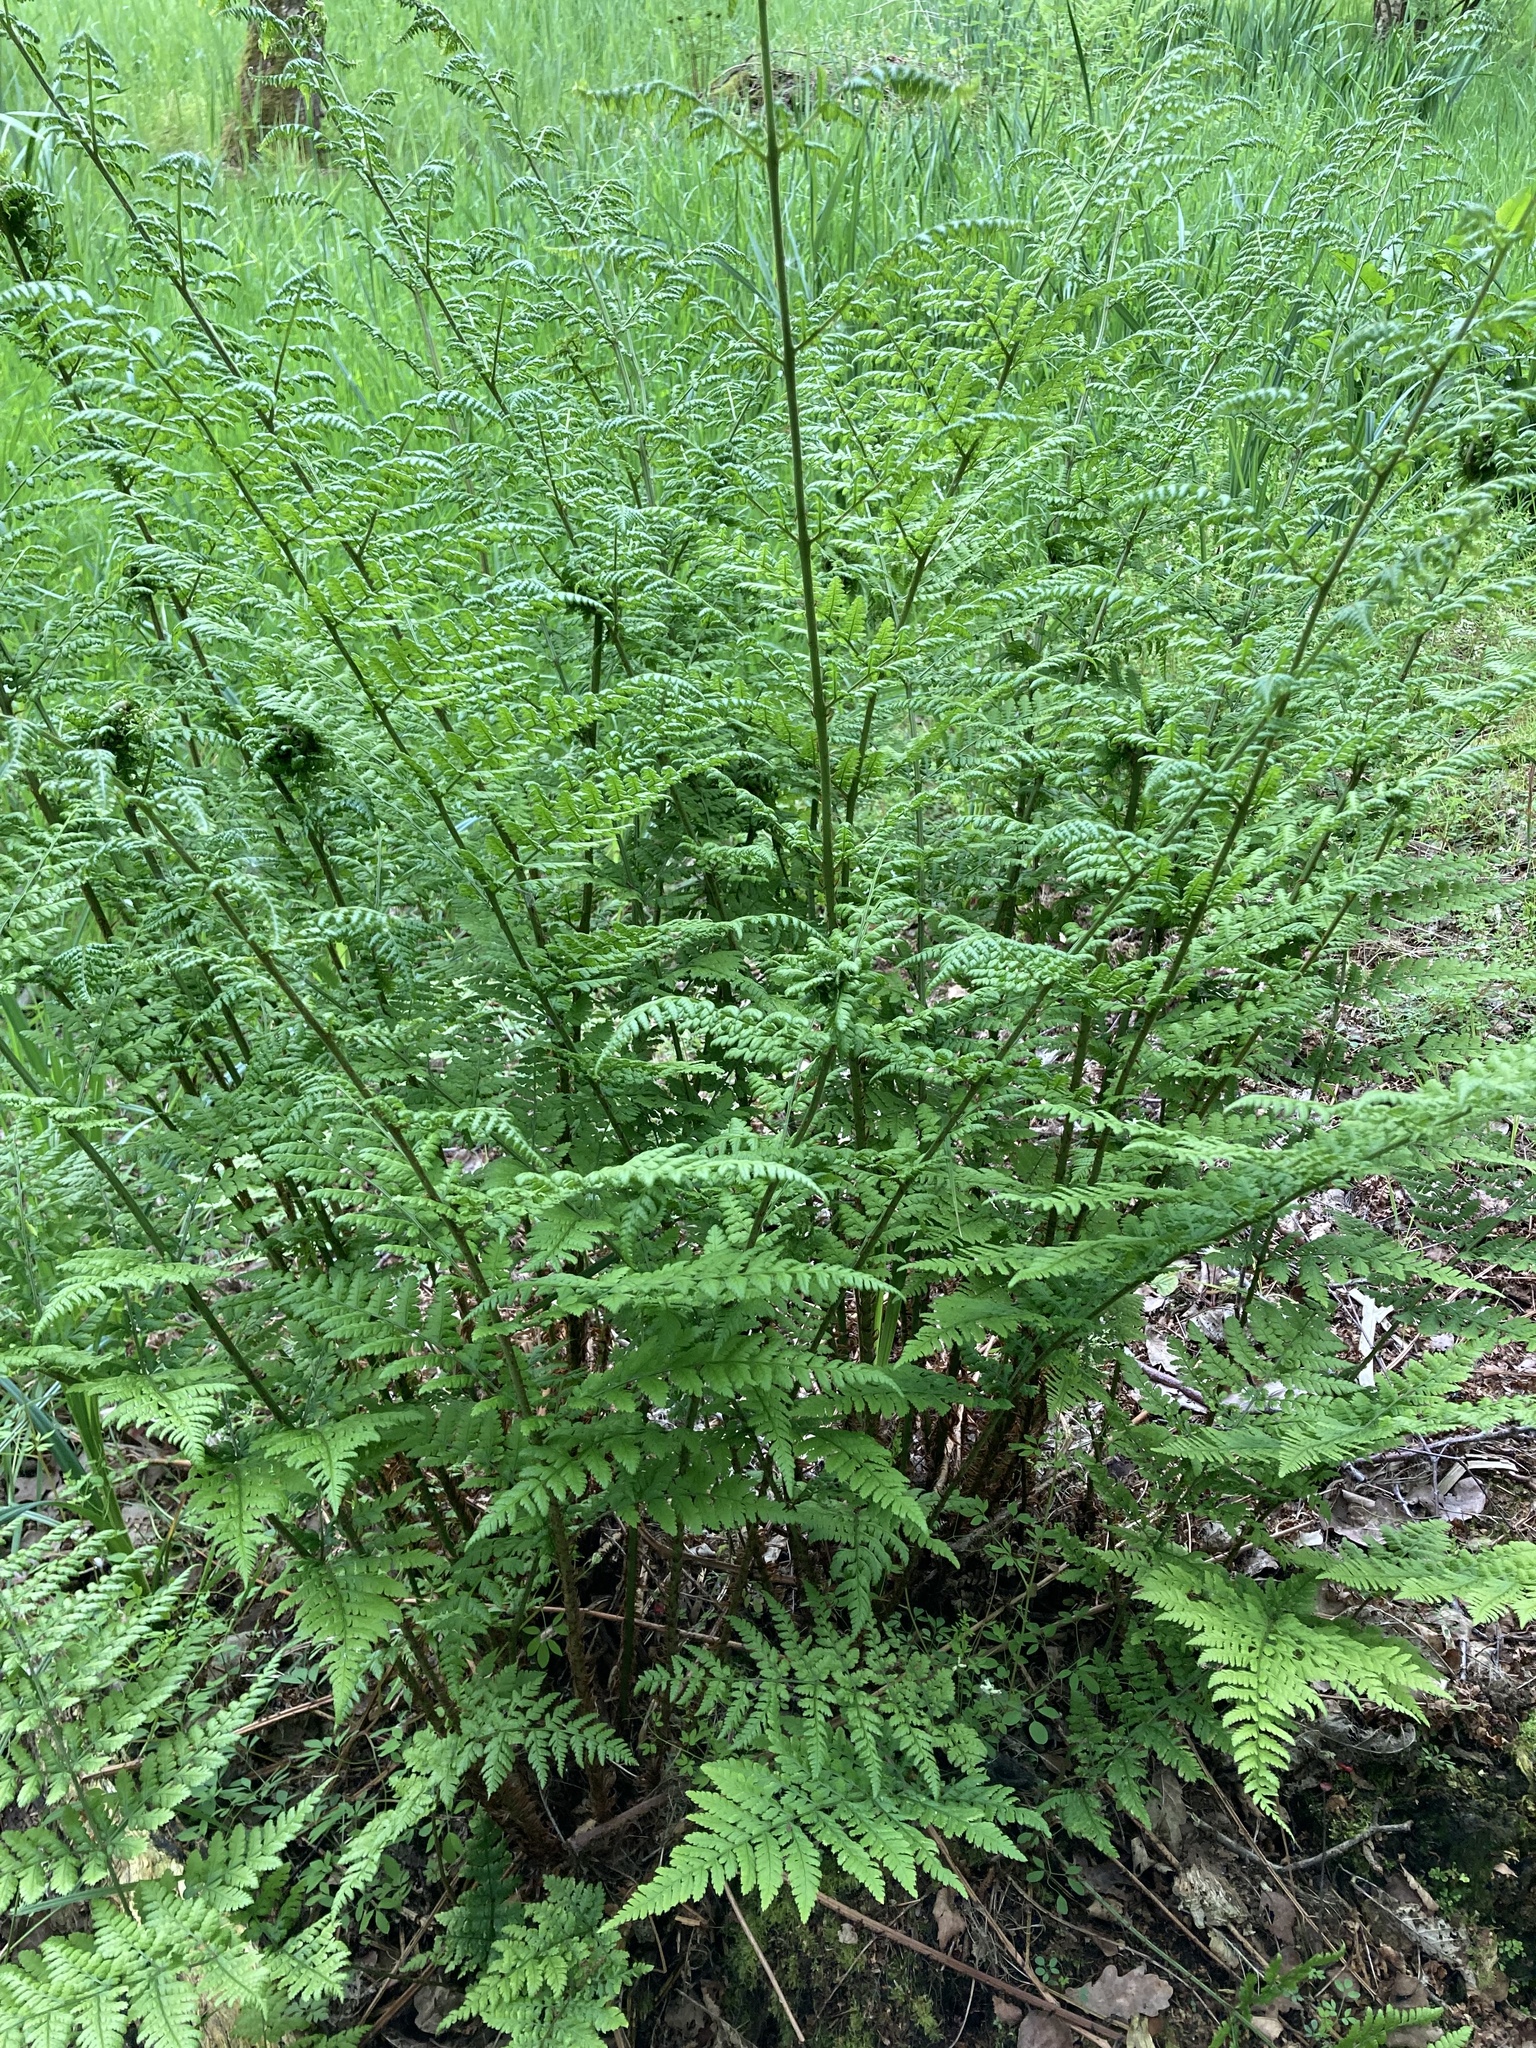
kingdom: Plantae
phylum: Tracheophyta
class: Polypodiopsida
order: Polypodiales
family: Dryopteridaceae
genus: Dryopteris
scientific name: Dryopteris dilatata
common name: Broad buckler-fern
